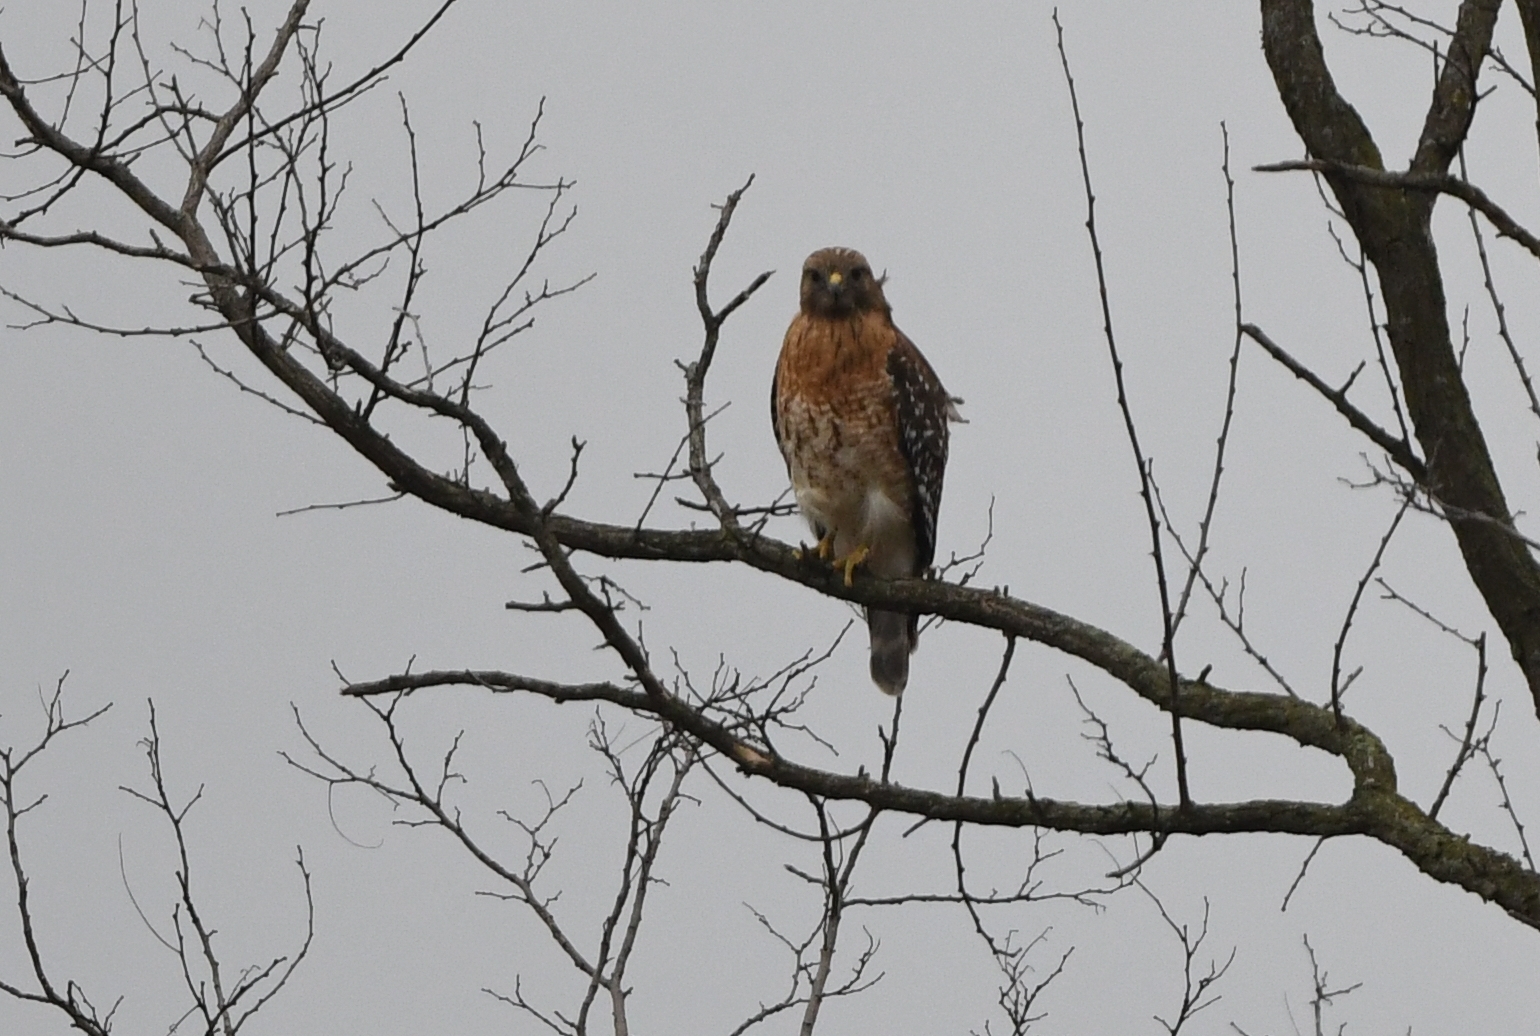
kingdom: Animalia
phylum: Chordata
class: Aves
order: Accipitriformes
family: Accipitridae
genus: Buteo
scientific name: Buteo lineatus
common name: Red-shouldered hawk
